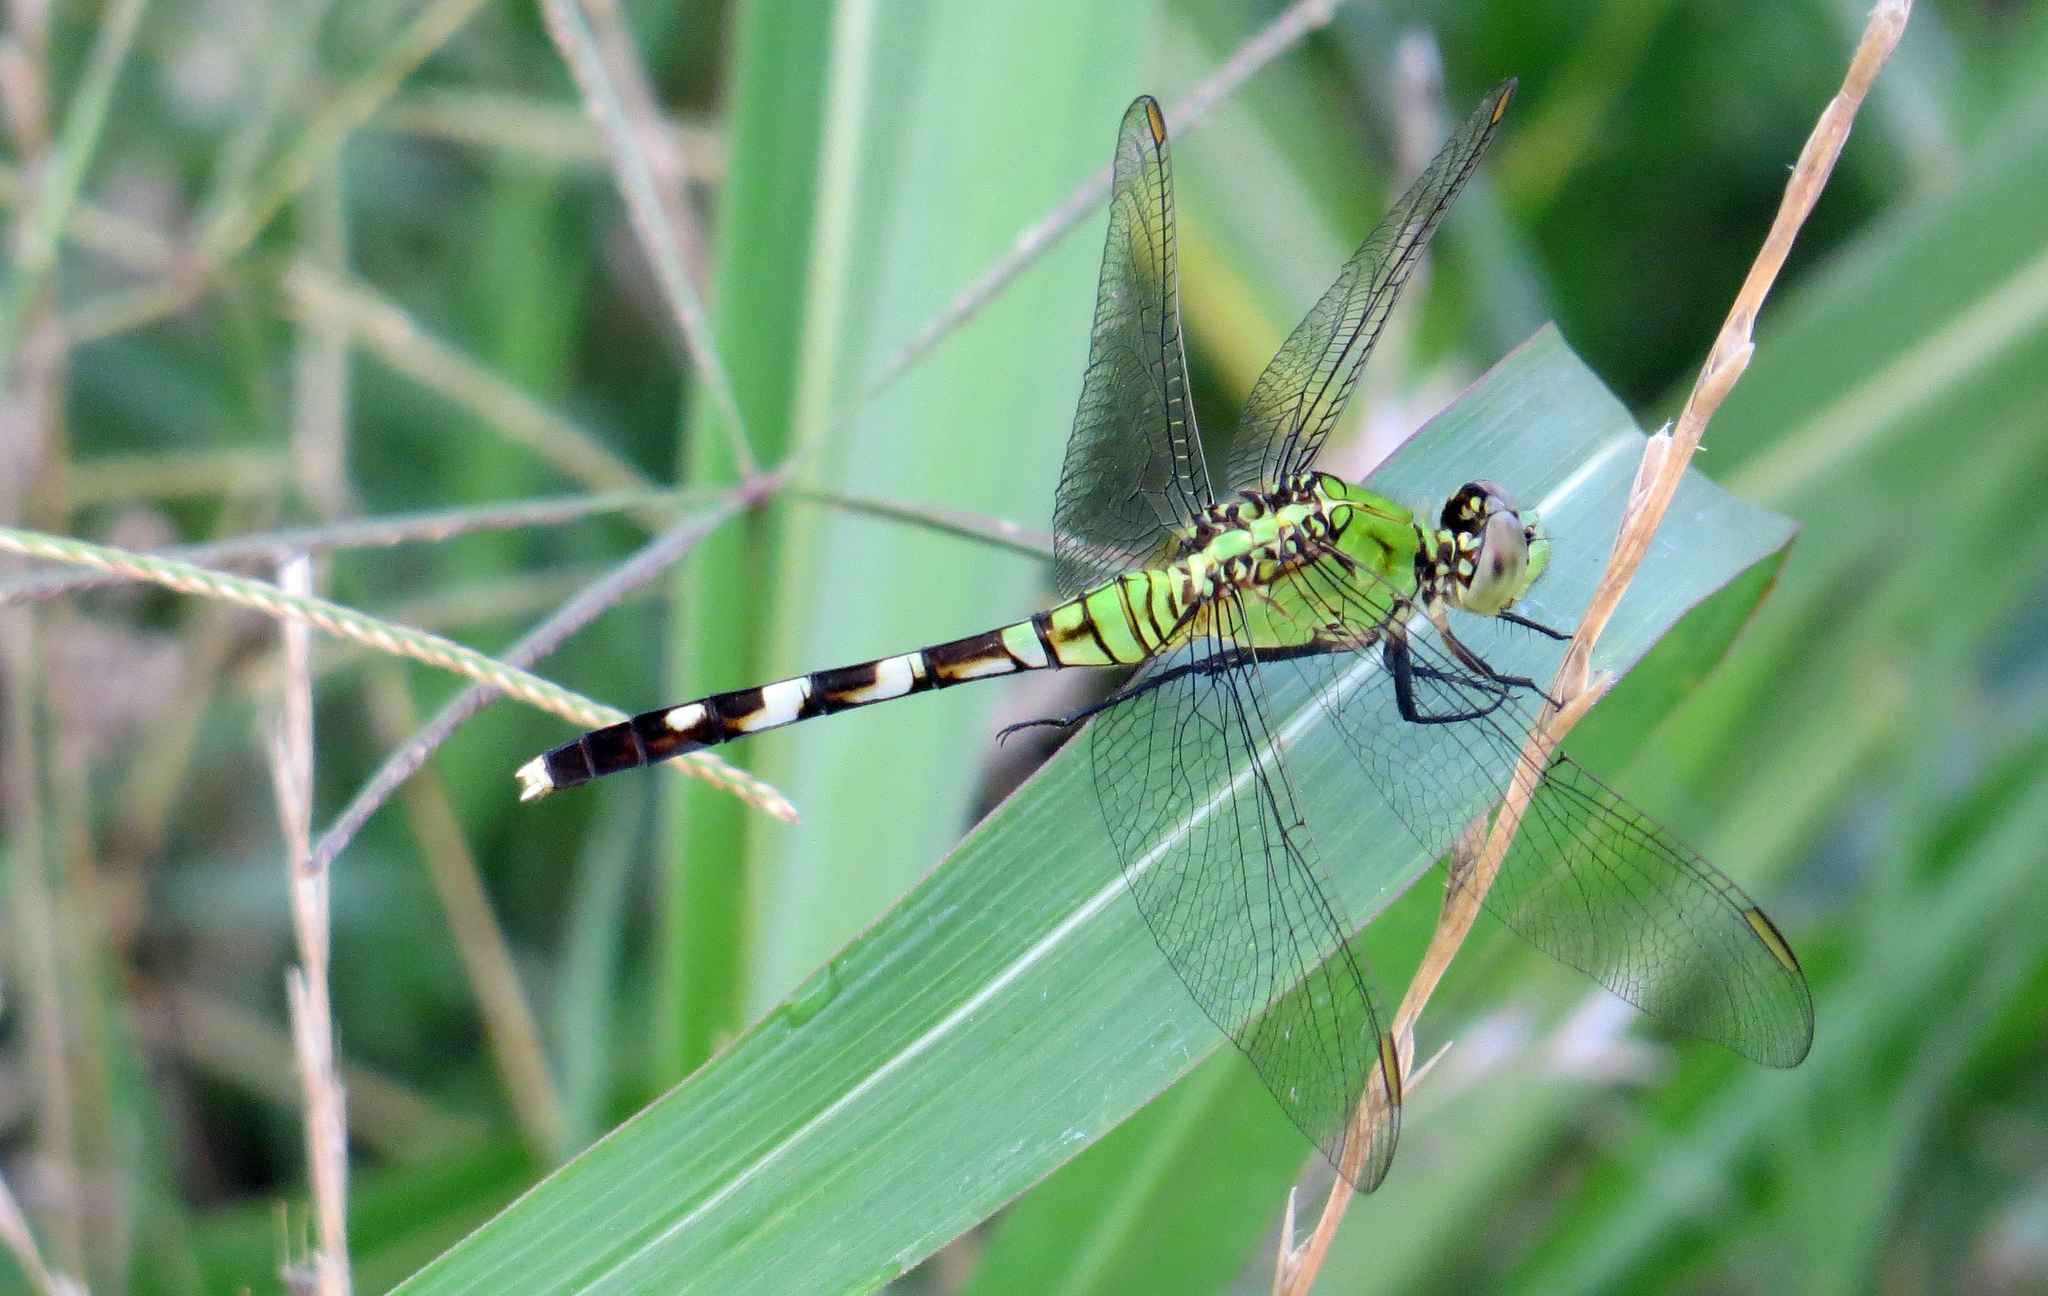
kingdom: Animalia
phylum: Arthropoda
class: Insecta
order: Odonata
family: Libellulidae
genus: Erythemis
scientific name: Erythemis simplicicollis
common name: Eastern pondhawk
